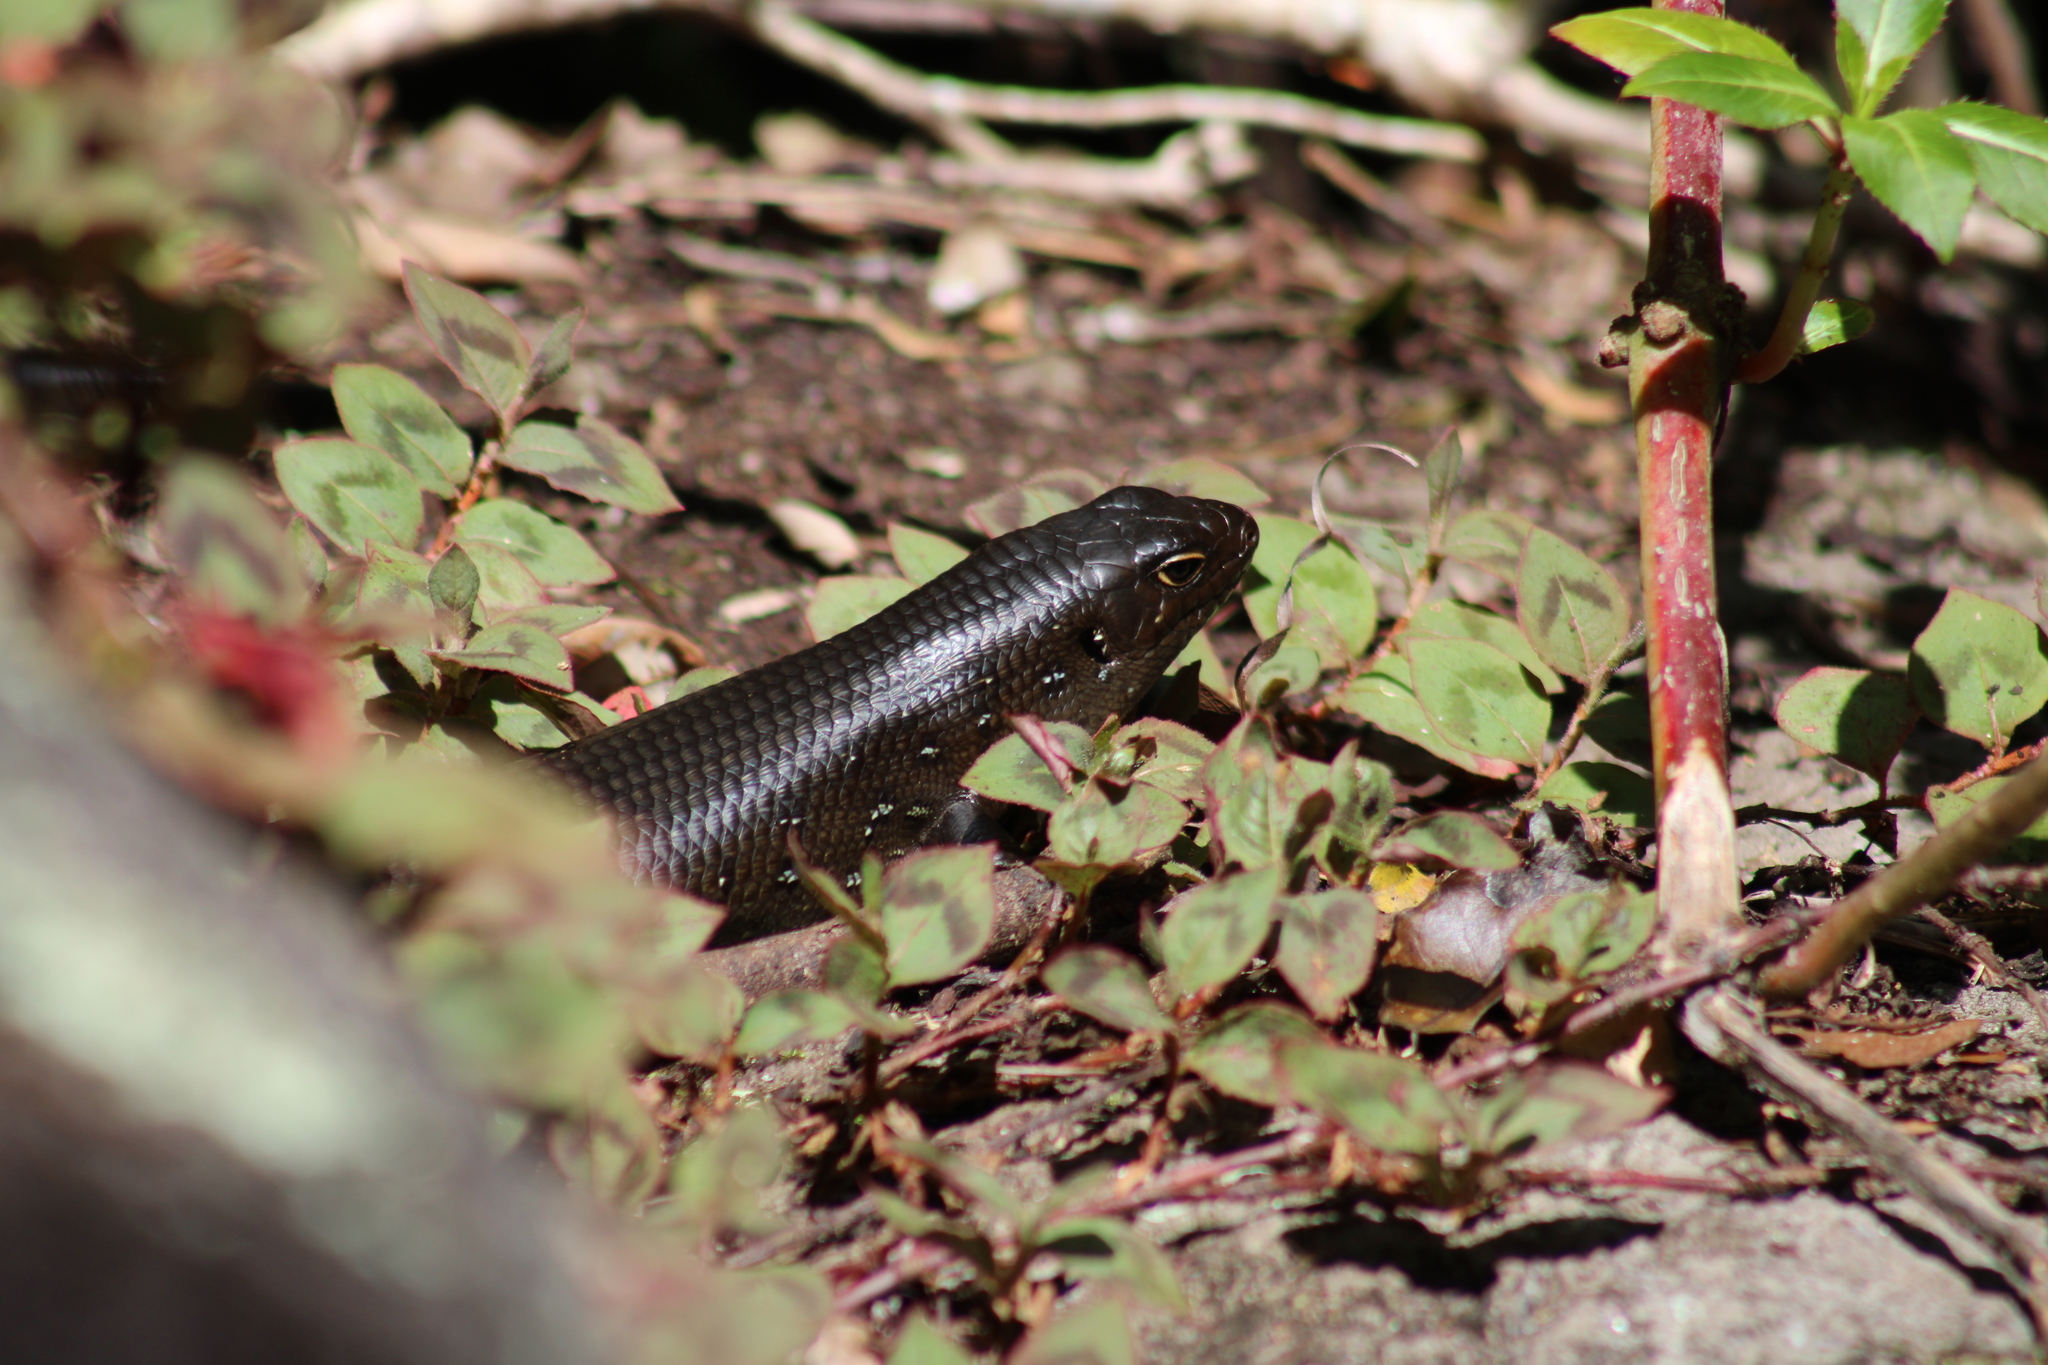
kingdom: Animalia
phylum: Chordata
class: Squamata
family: Scincidae
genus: Bellatorias
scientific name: Bellatorias major
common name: Land mullet
